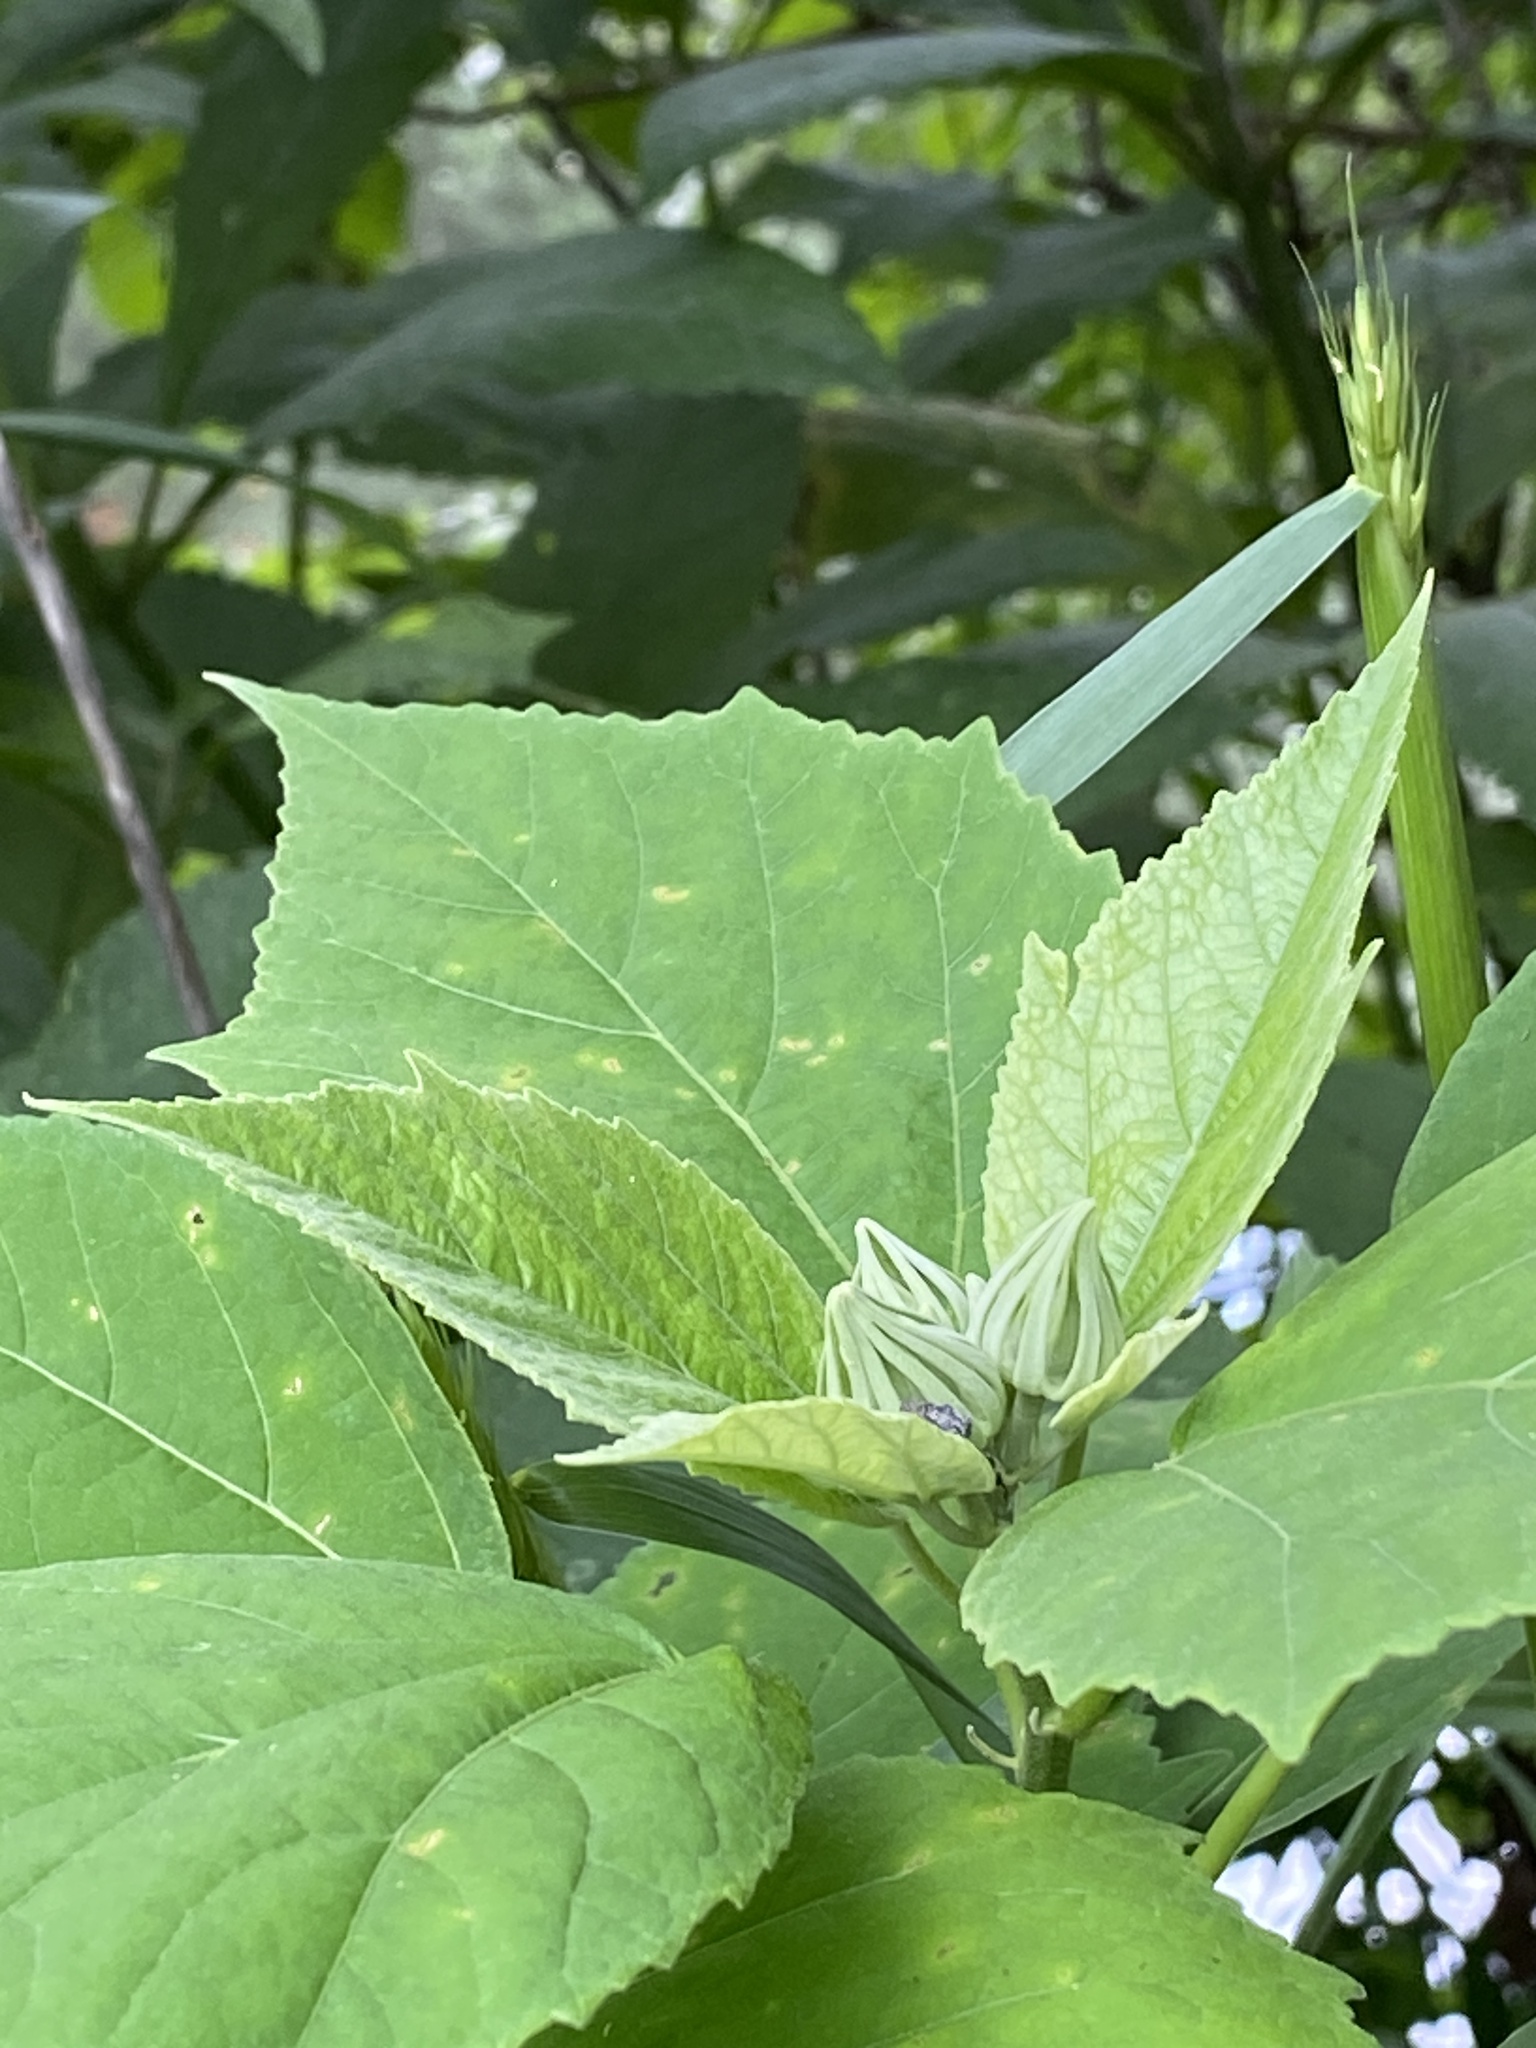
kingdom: Plantae
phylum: Tracheophyta
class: Magnoliopsida
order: Malvales
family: Malvaceae
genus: Hibiscus
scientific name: Hibiscus moscheutos
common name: Common rose-mallow
